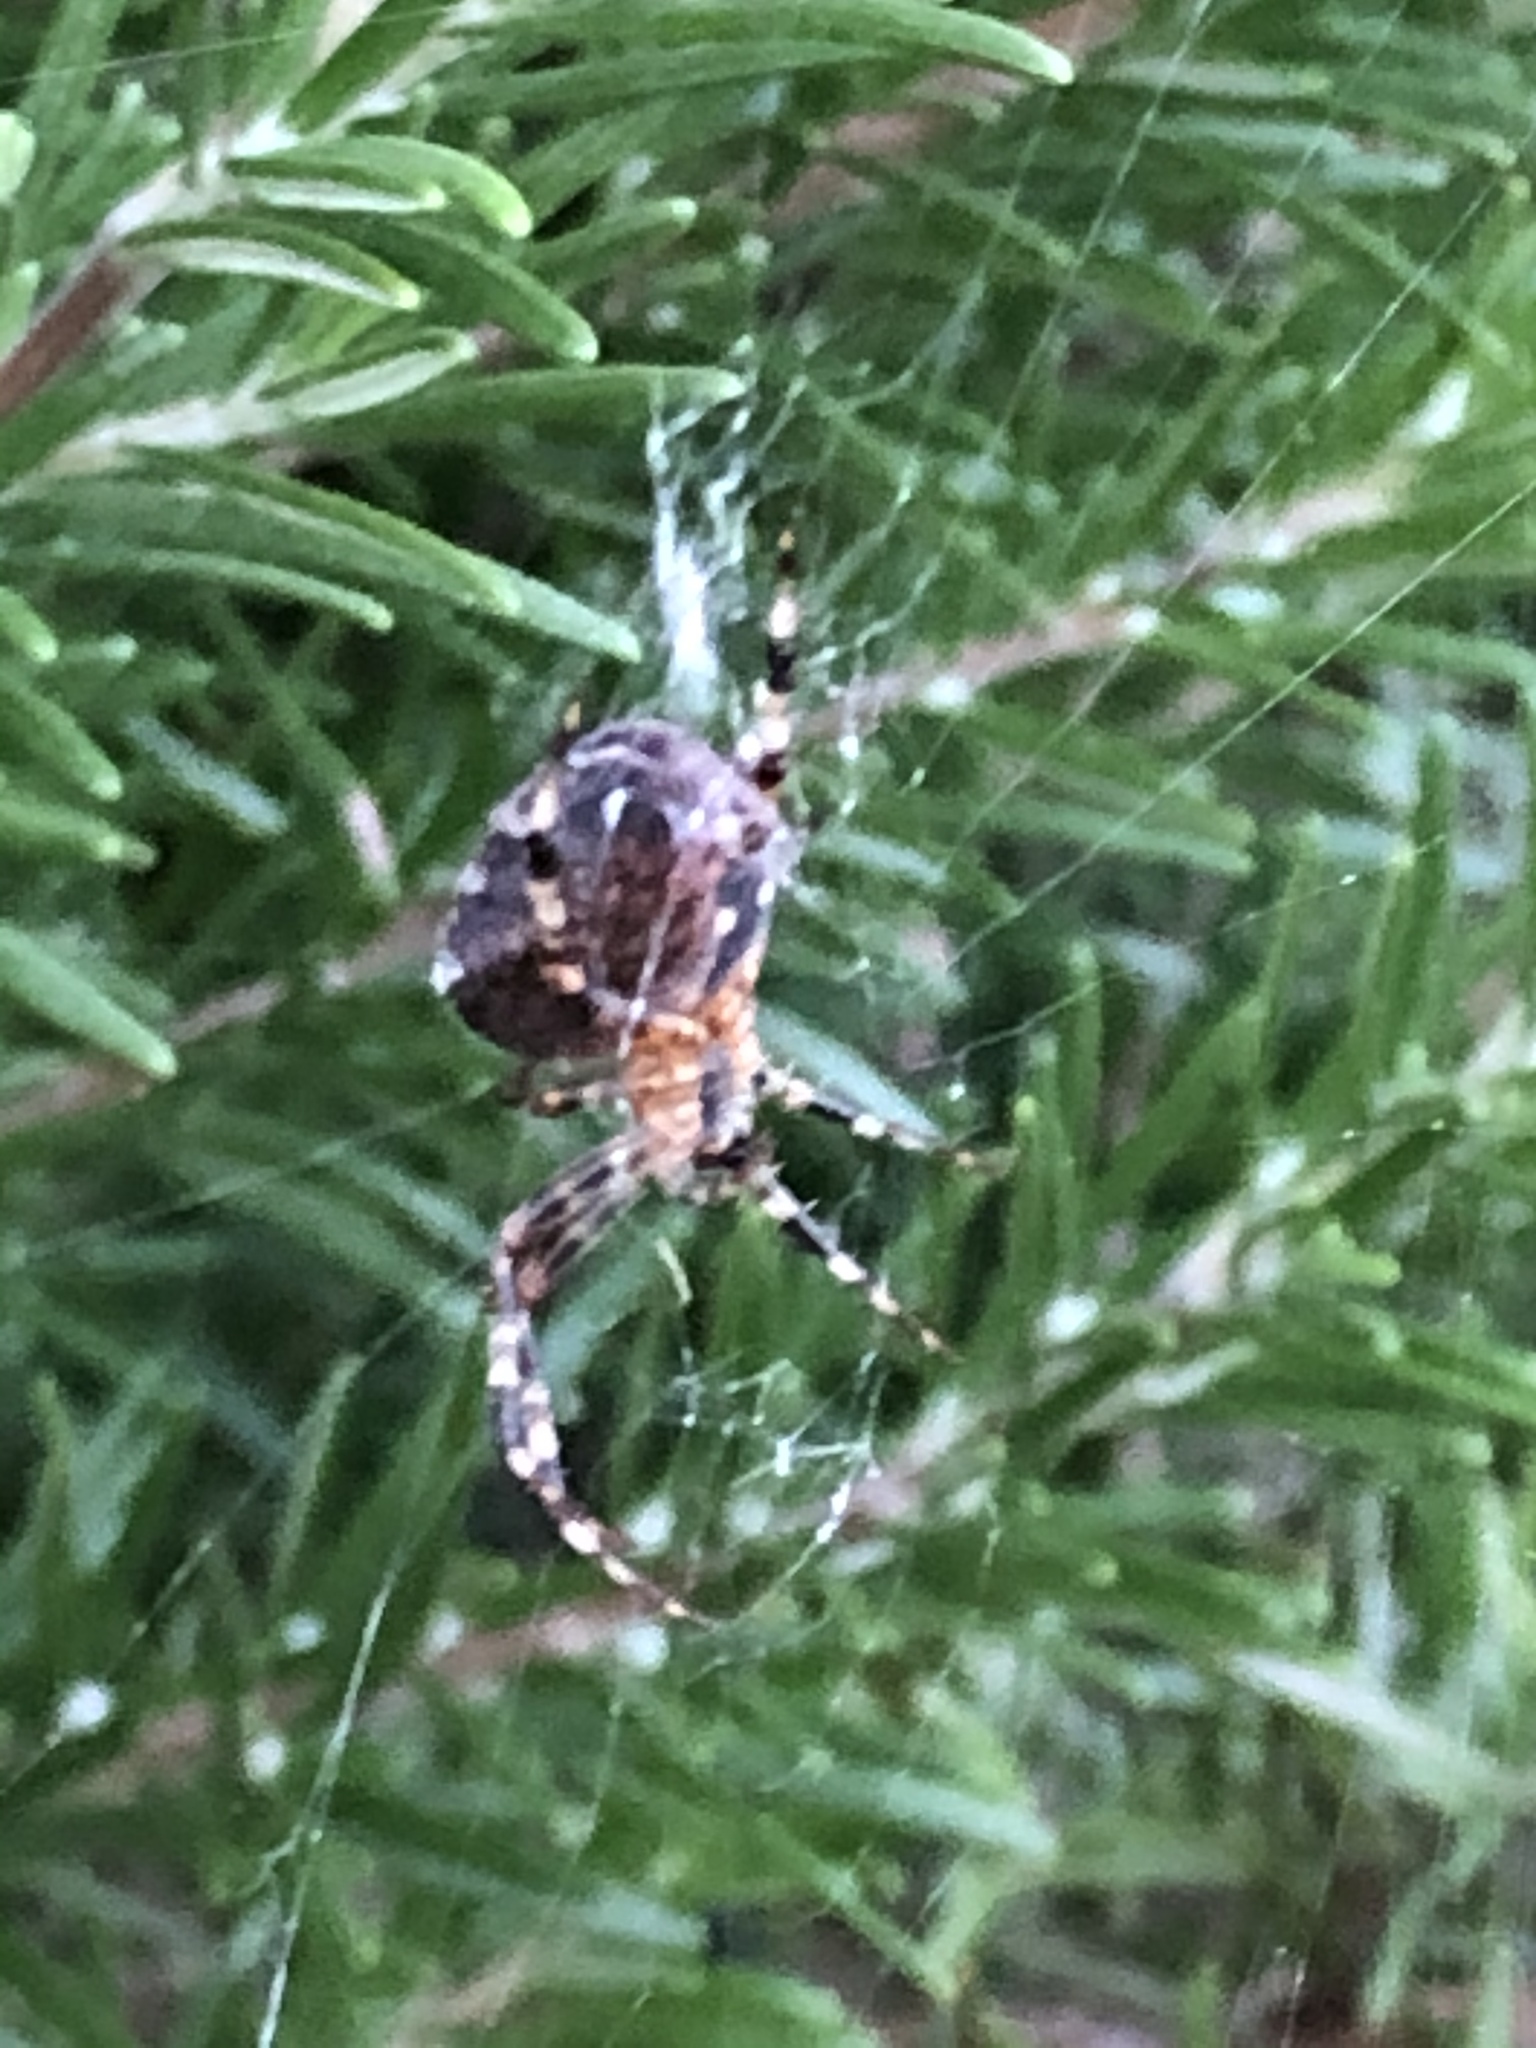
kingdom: Animalia
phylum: Arthropoda
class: Arachnida
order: Araneae
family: Araneidae
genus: Araneus
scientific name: Araneus diadematus
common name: Cross orbweaver
